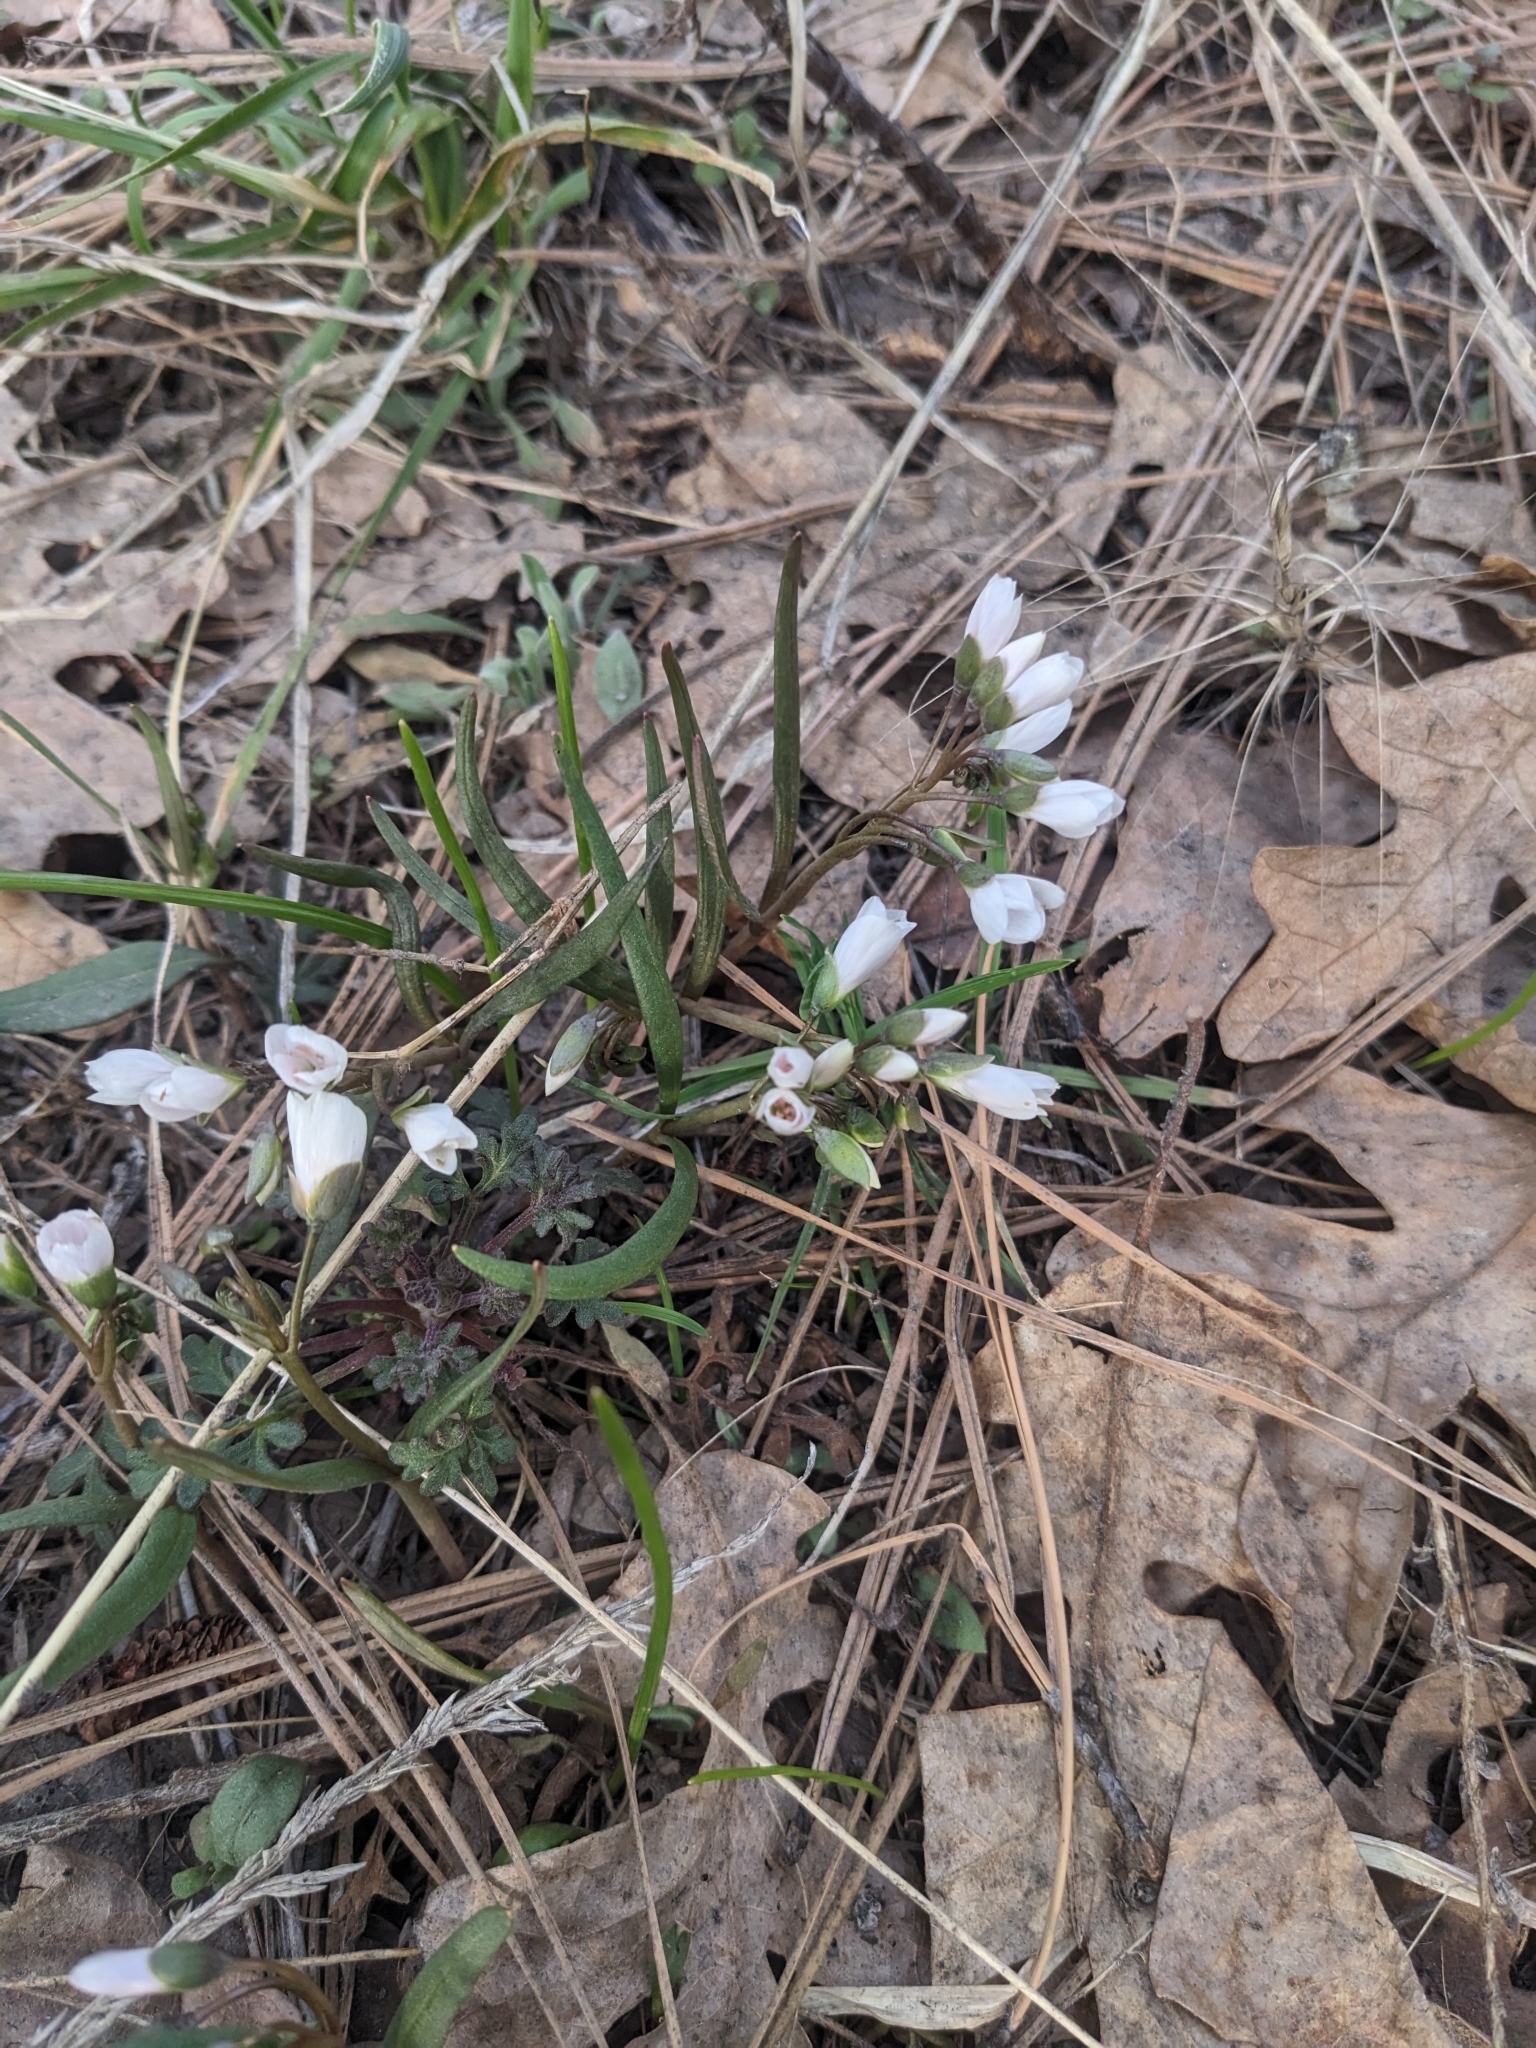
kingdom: Plantae
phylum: Tracheophyta
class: Magnoliopsida
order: Caryophyllales
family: Montiaceae
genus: Claytonia
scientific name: Claytonia rosea
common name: Rocky mountain spring-beauty
